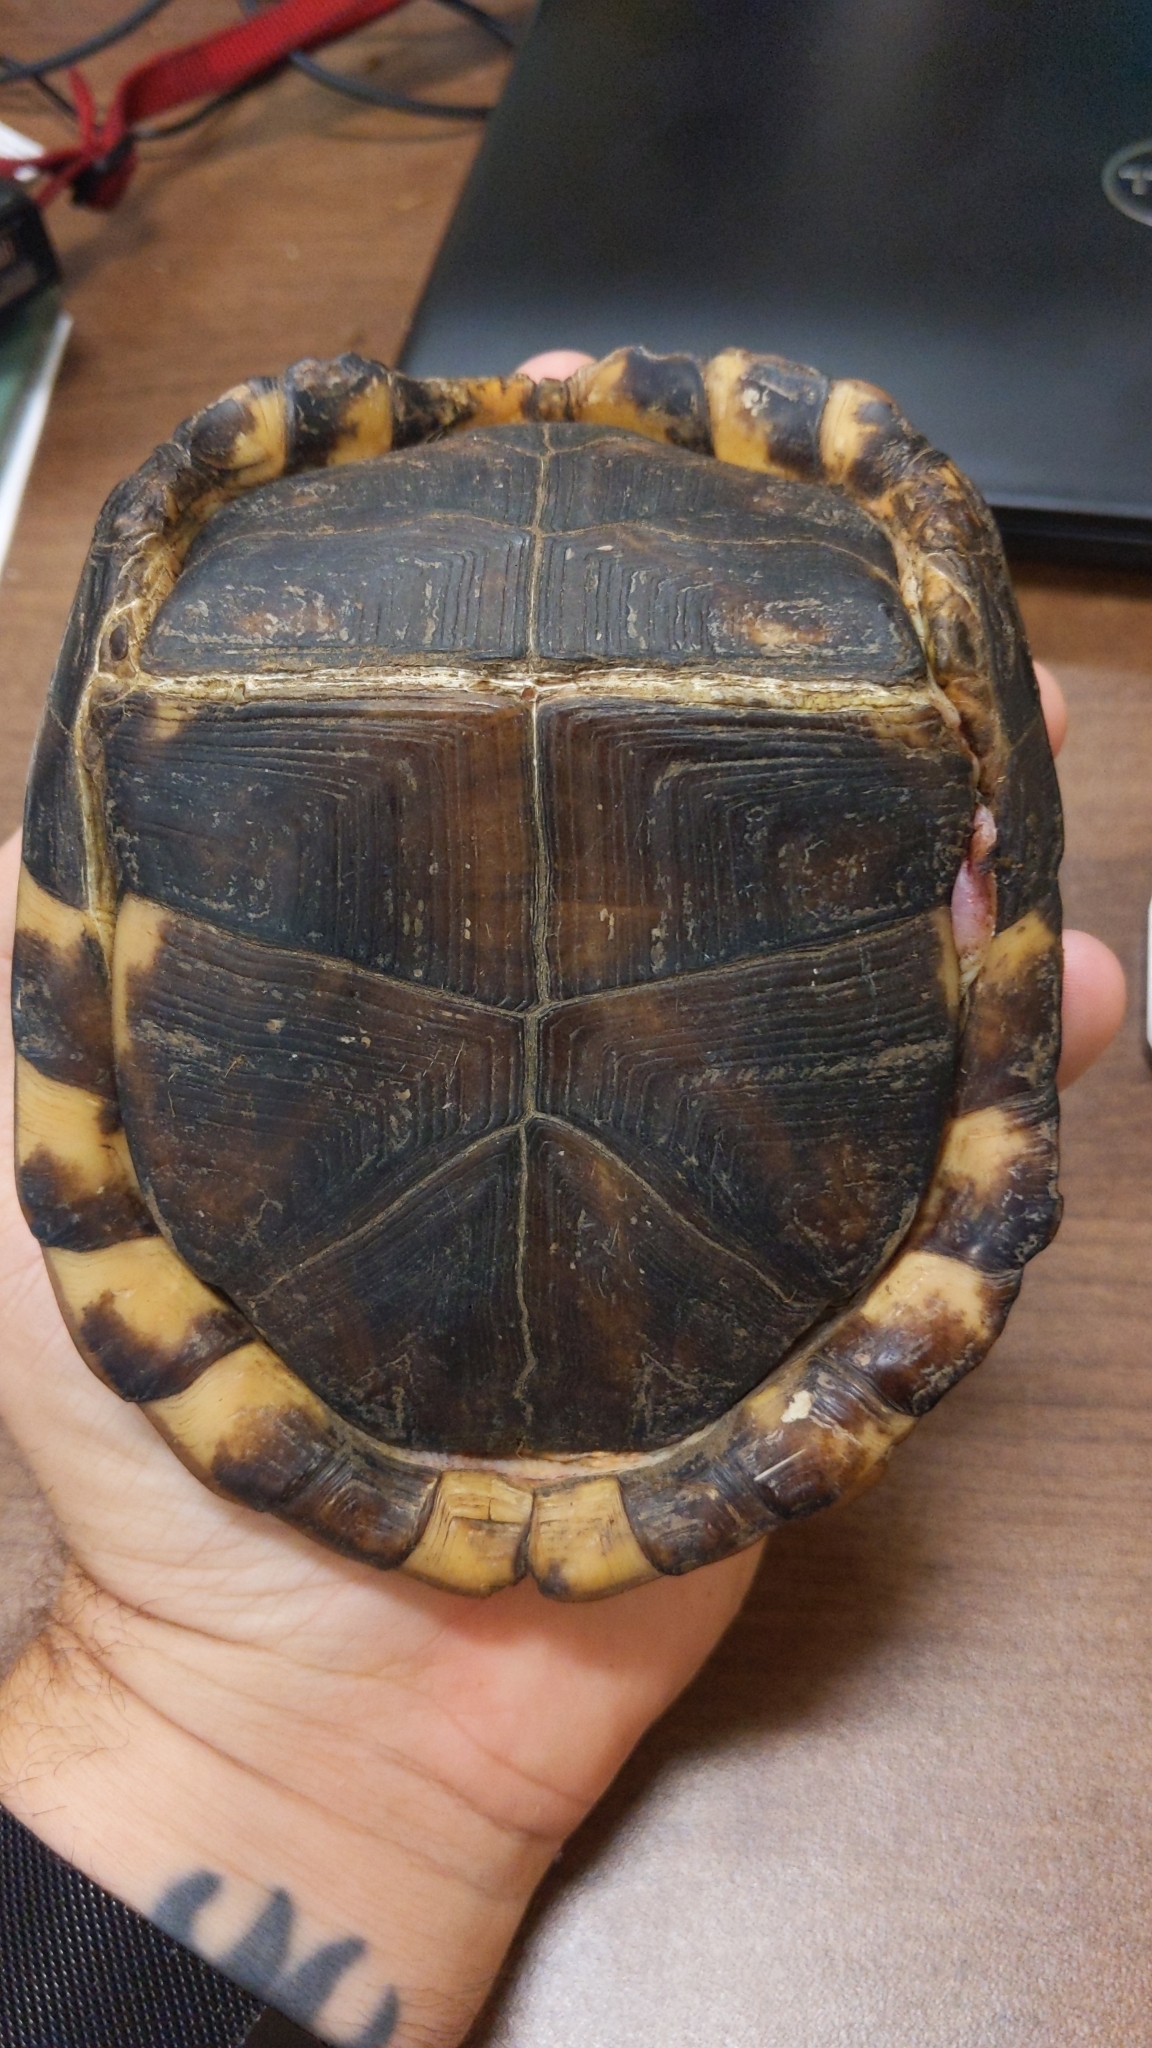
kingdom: Animalia
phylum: Chordata
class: Testudines
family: Emydidae
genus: Terrapene
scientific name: Terrapene carolina
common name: Common box turtle
